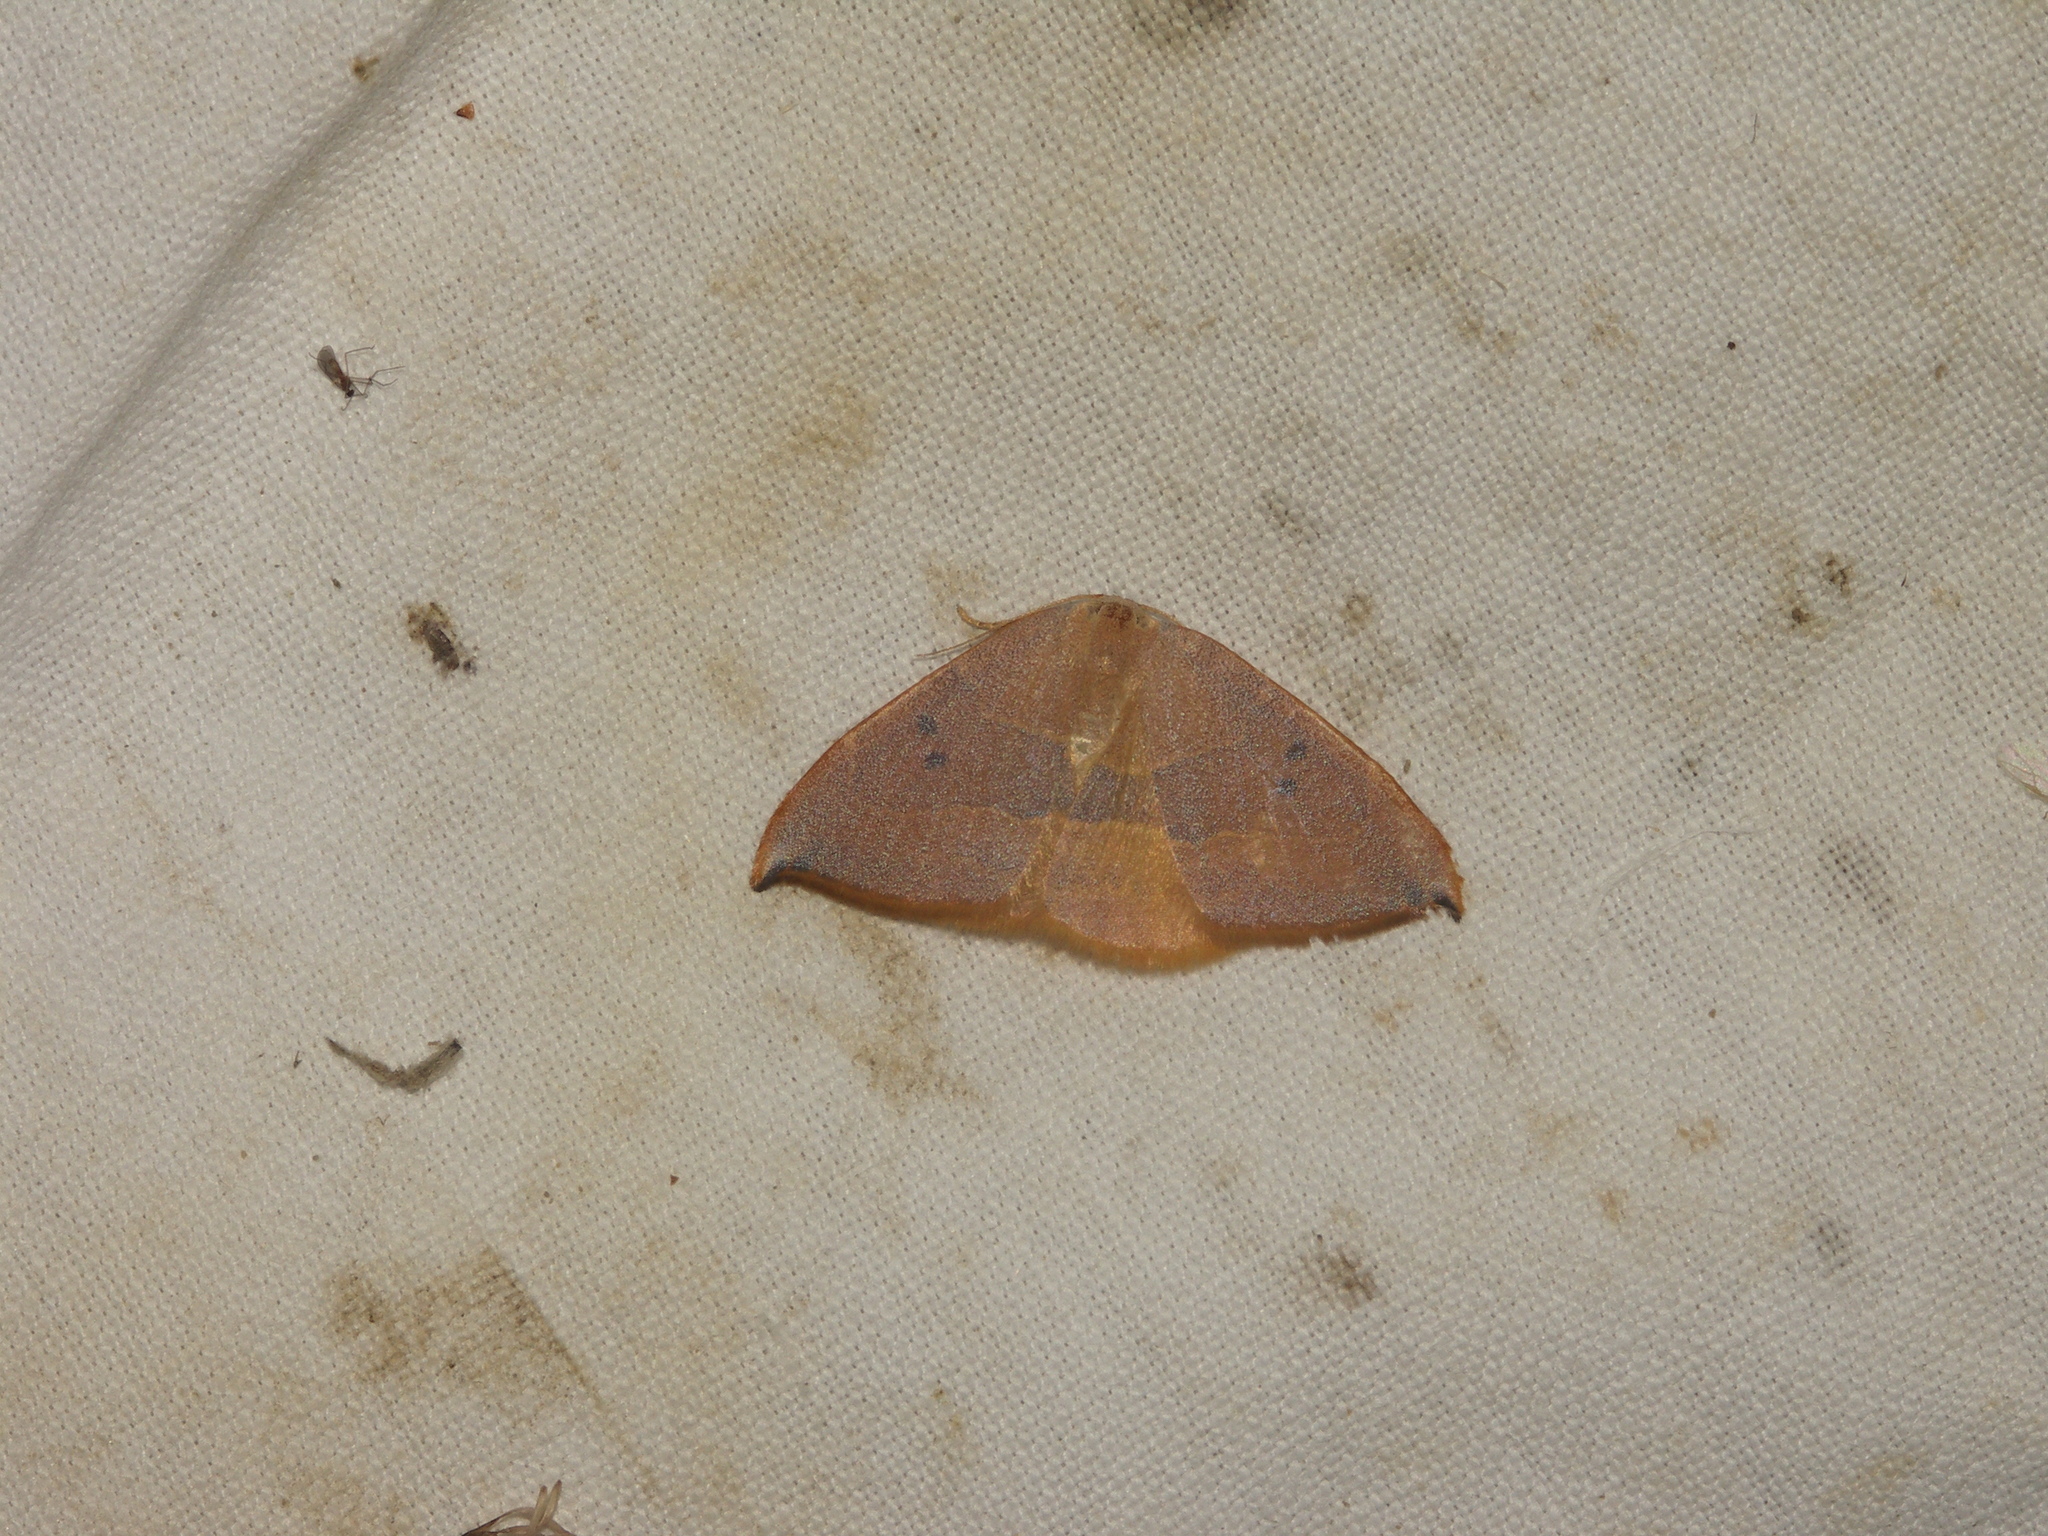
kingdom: Animalia
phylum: Arthropoda
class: Insecta
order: Lepidoptera
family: Drepanidae
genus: Watsonalla
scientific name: Watsonalla binaria
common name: Oak hook-tip
